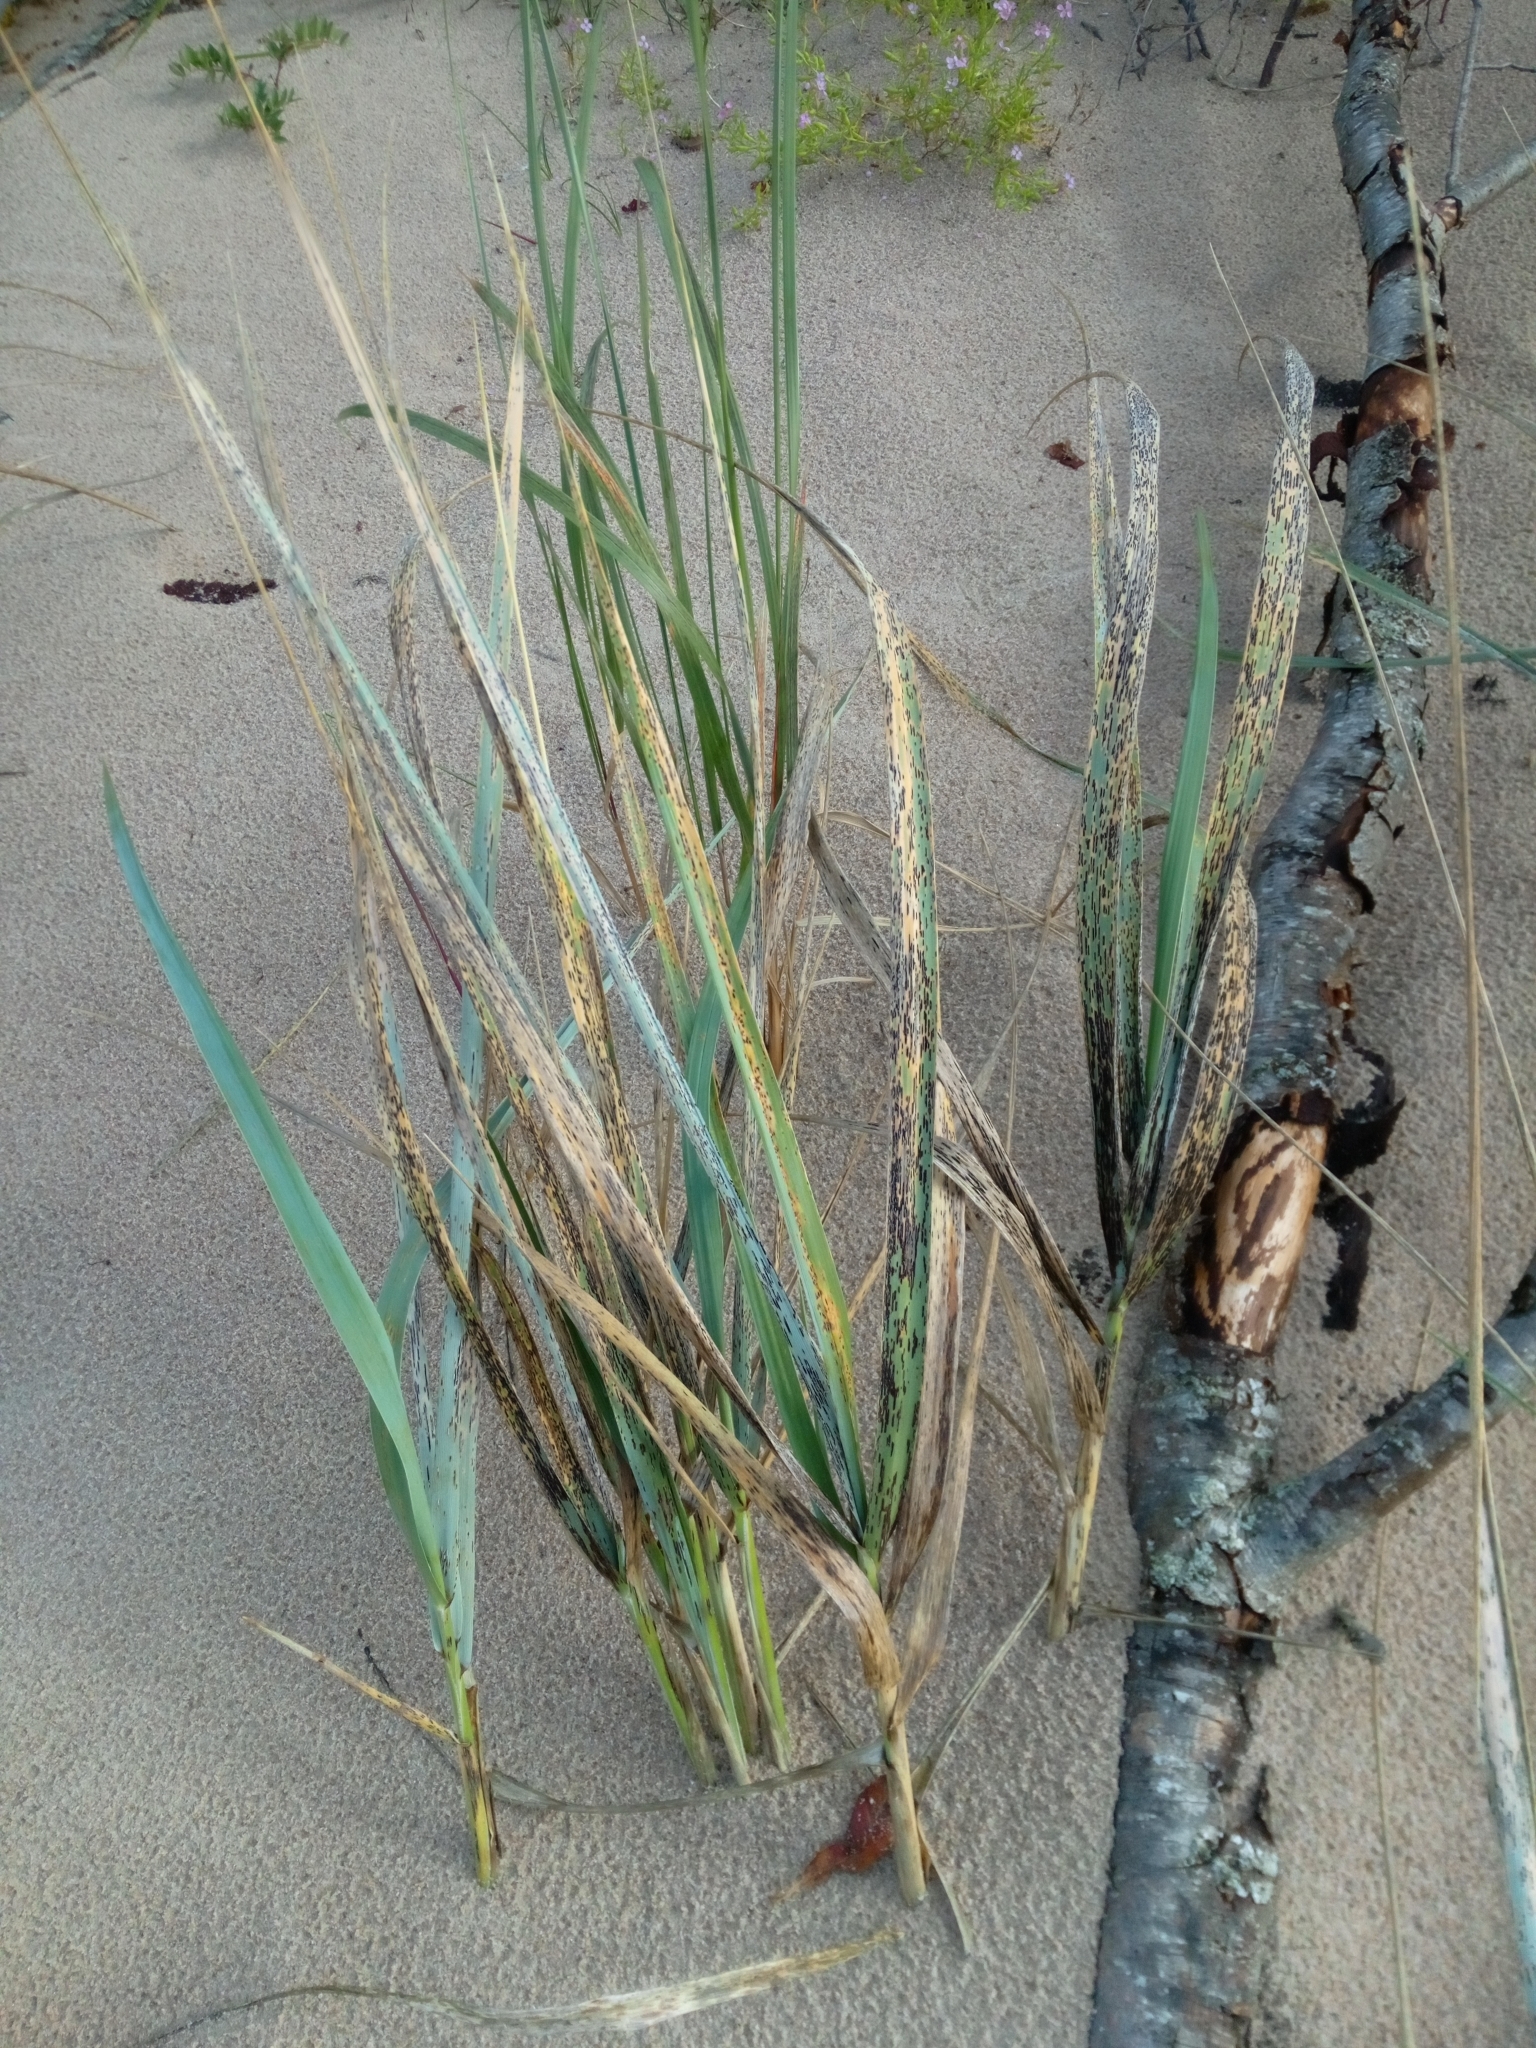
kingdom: Plantae
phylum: Tracheophyta
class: Liliopsida
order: Poales
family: Poaceae
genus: Leymus
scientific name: Leymus arenarius
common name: Lyme-grass
